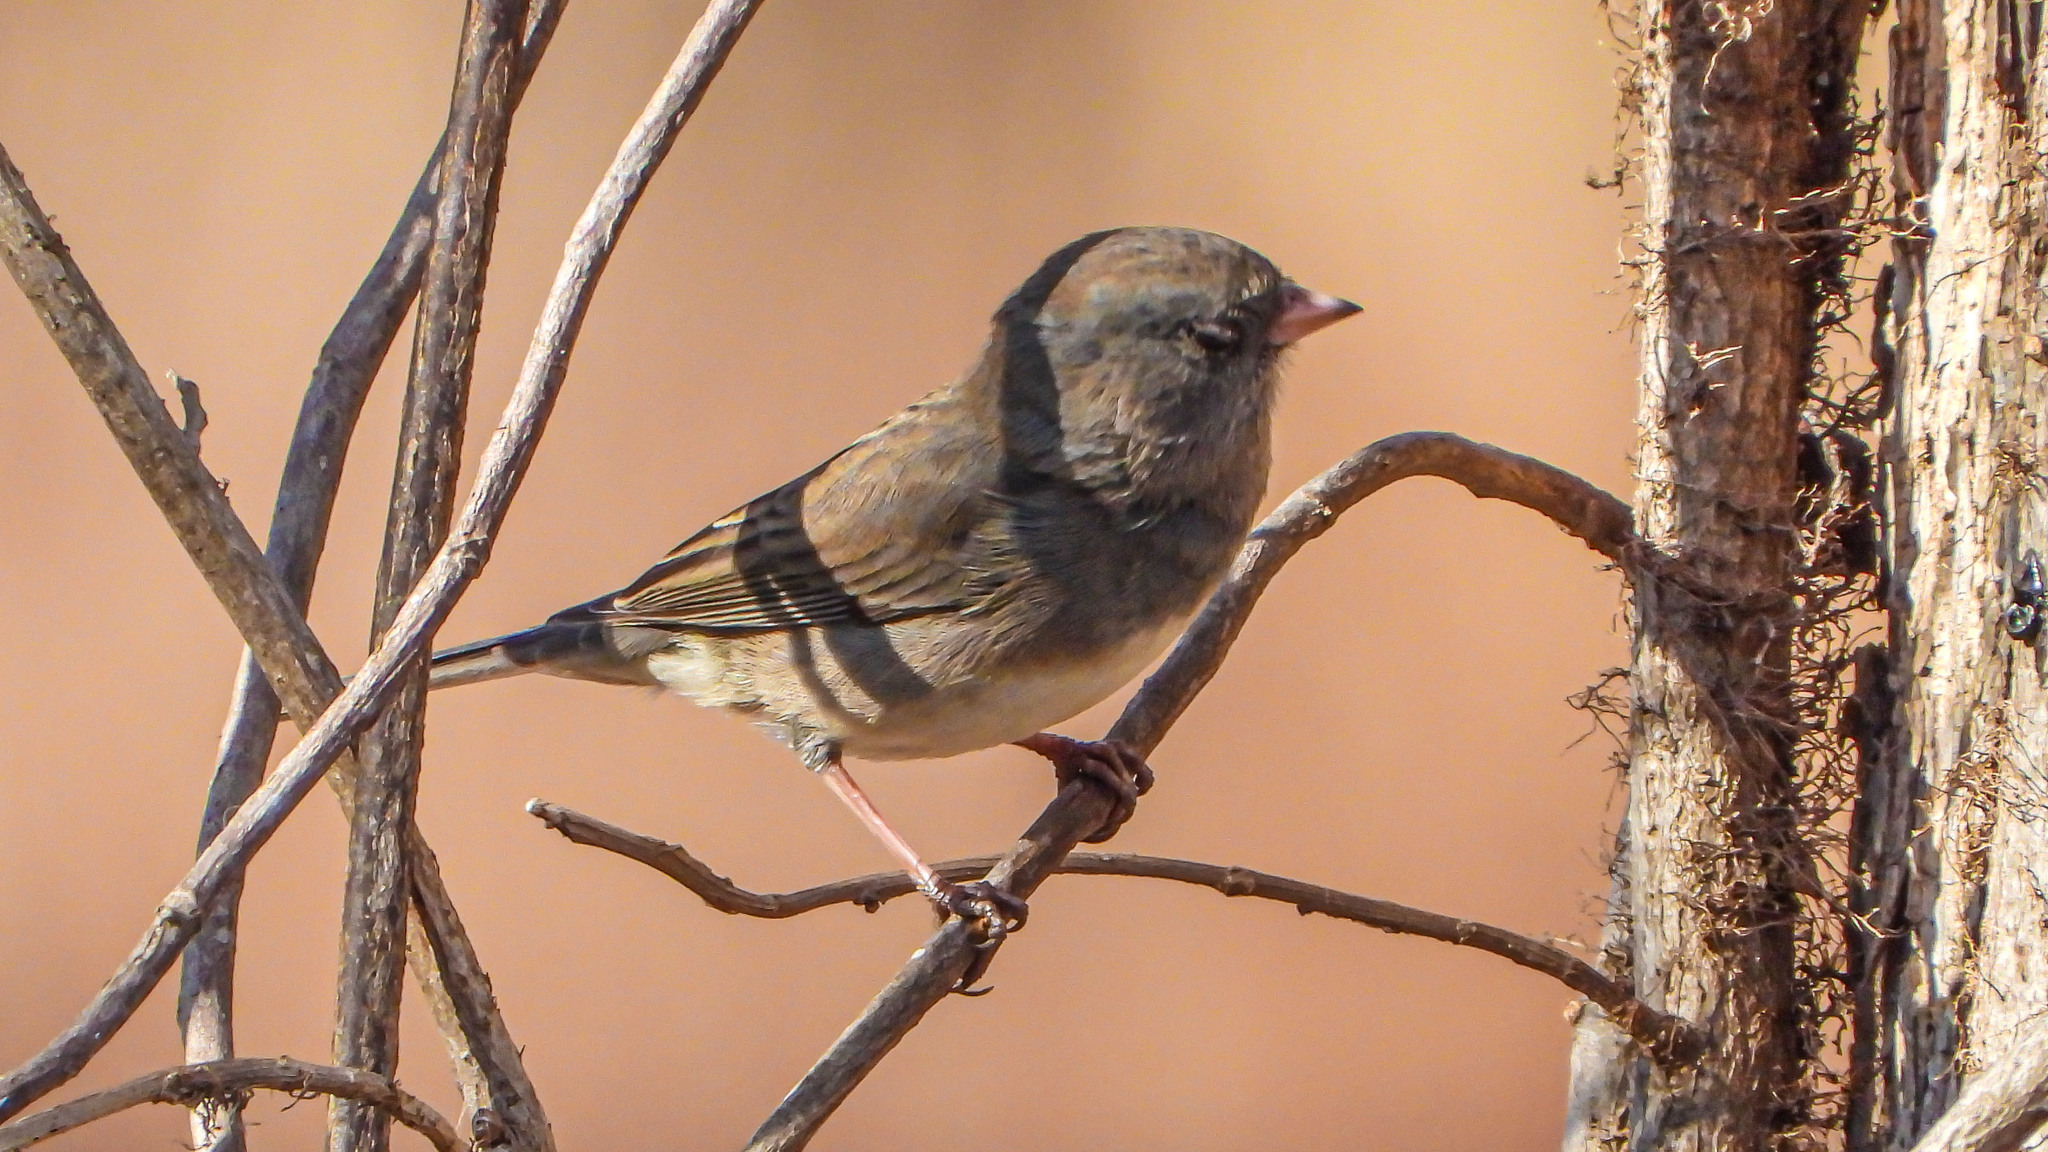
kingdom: Animalia
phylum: Chordata
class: Aves
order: Passeriformes
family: Passerellidae
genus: Junco
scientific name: Junco hyemalis
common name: Dark-eyed junco
